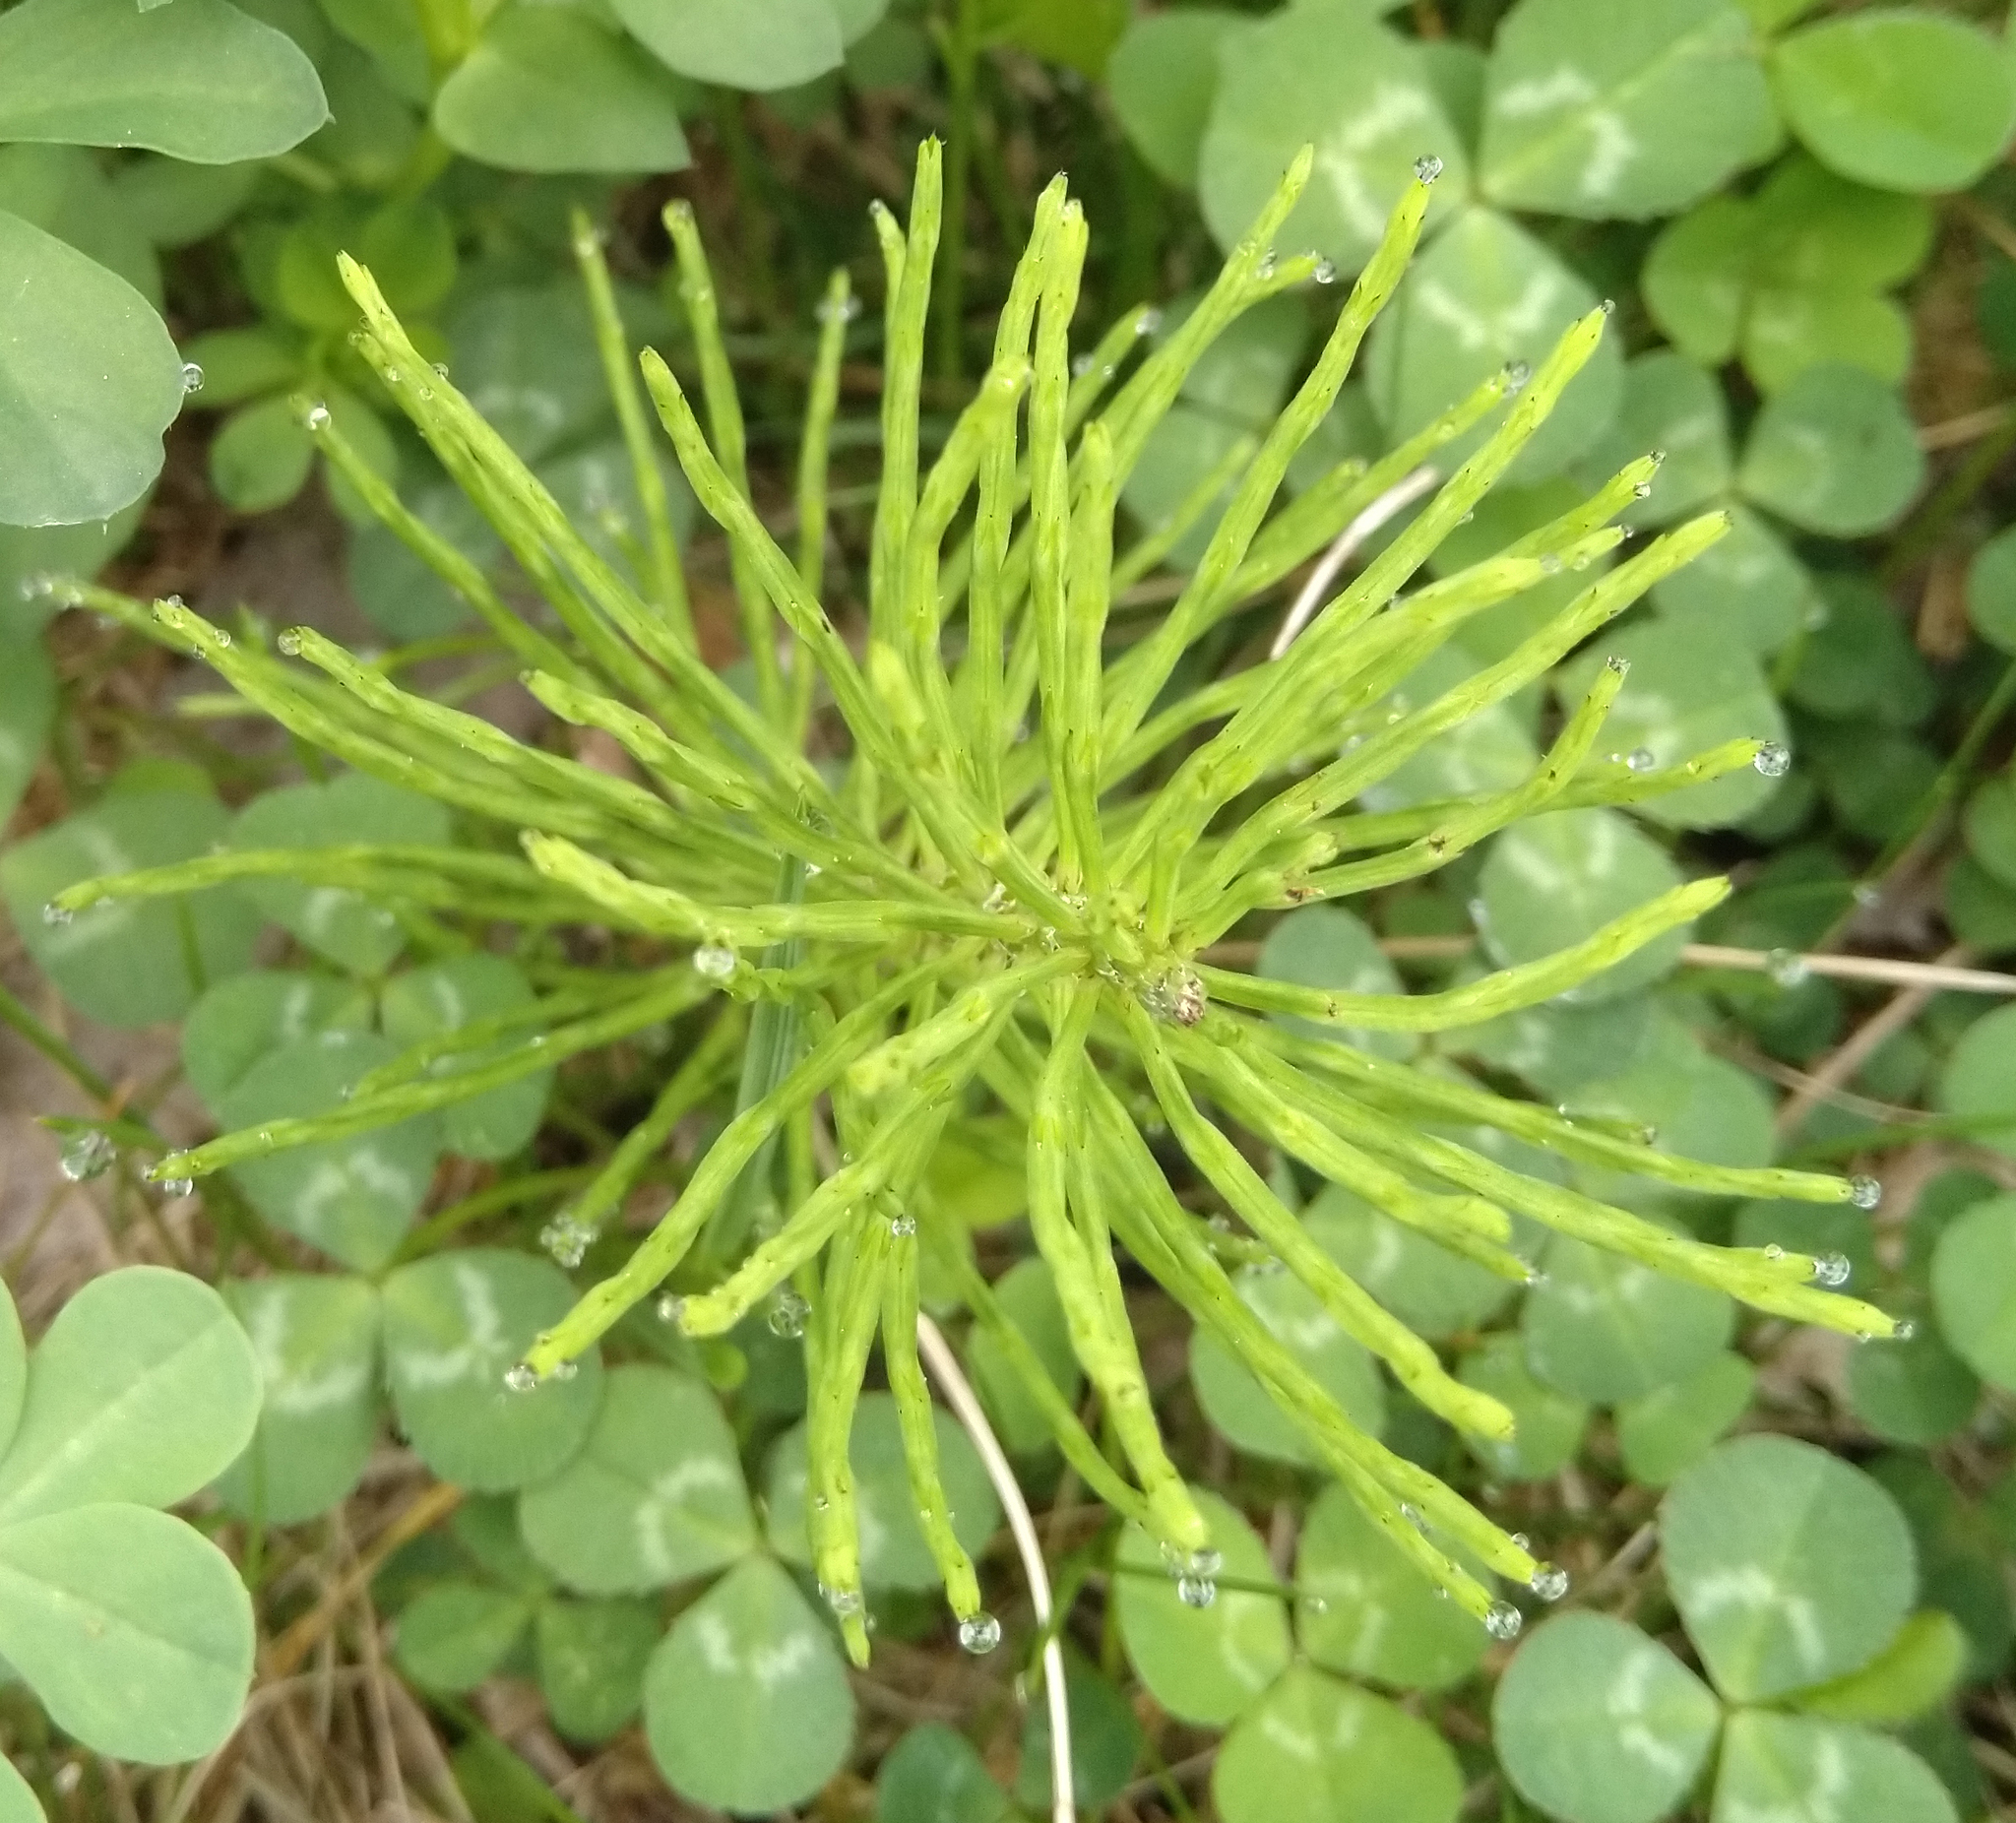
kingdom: Plantae
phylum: Tracheophyta
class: Polypodiopsida
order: Equisetales
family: Equisetaceae
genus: Equisetum
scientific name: Equisetum arvense
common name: Field horsetail
